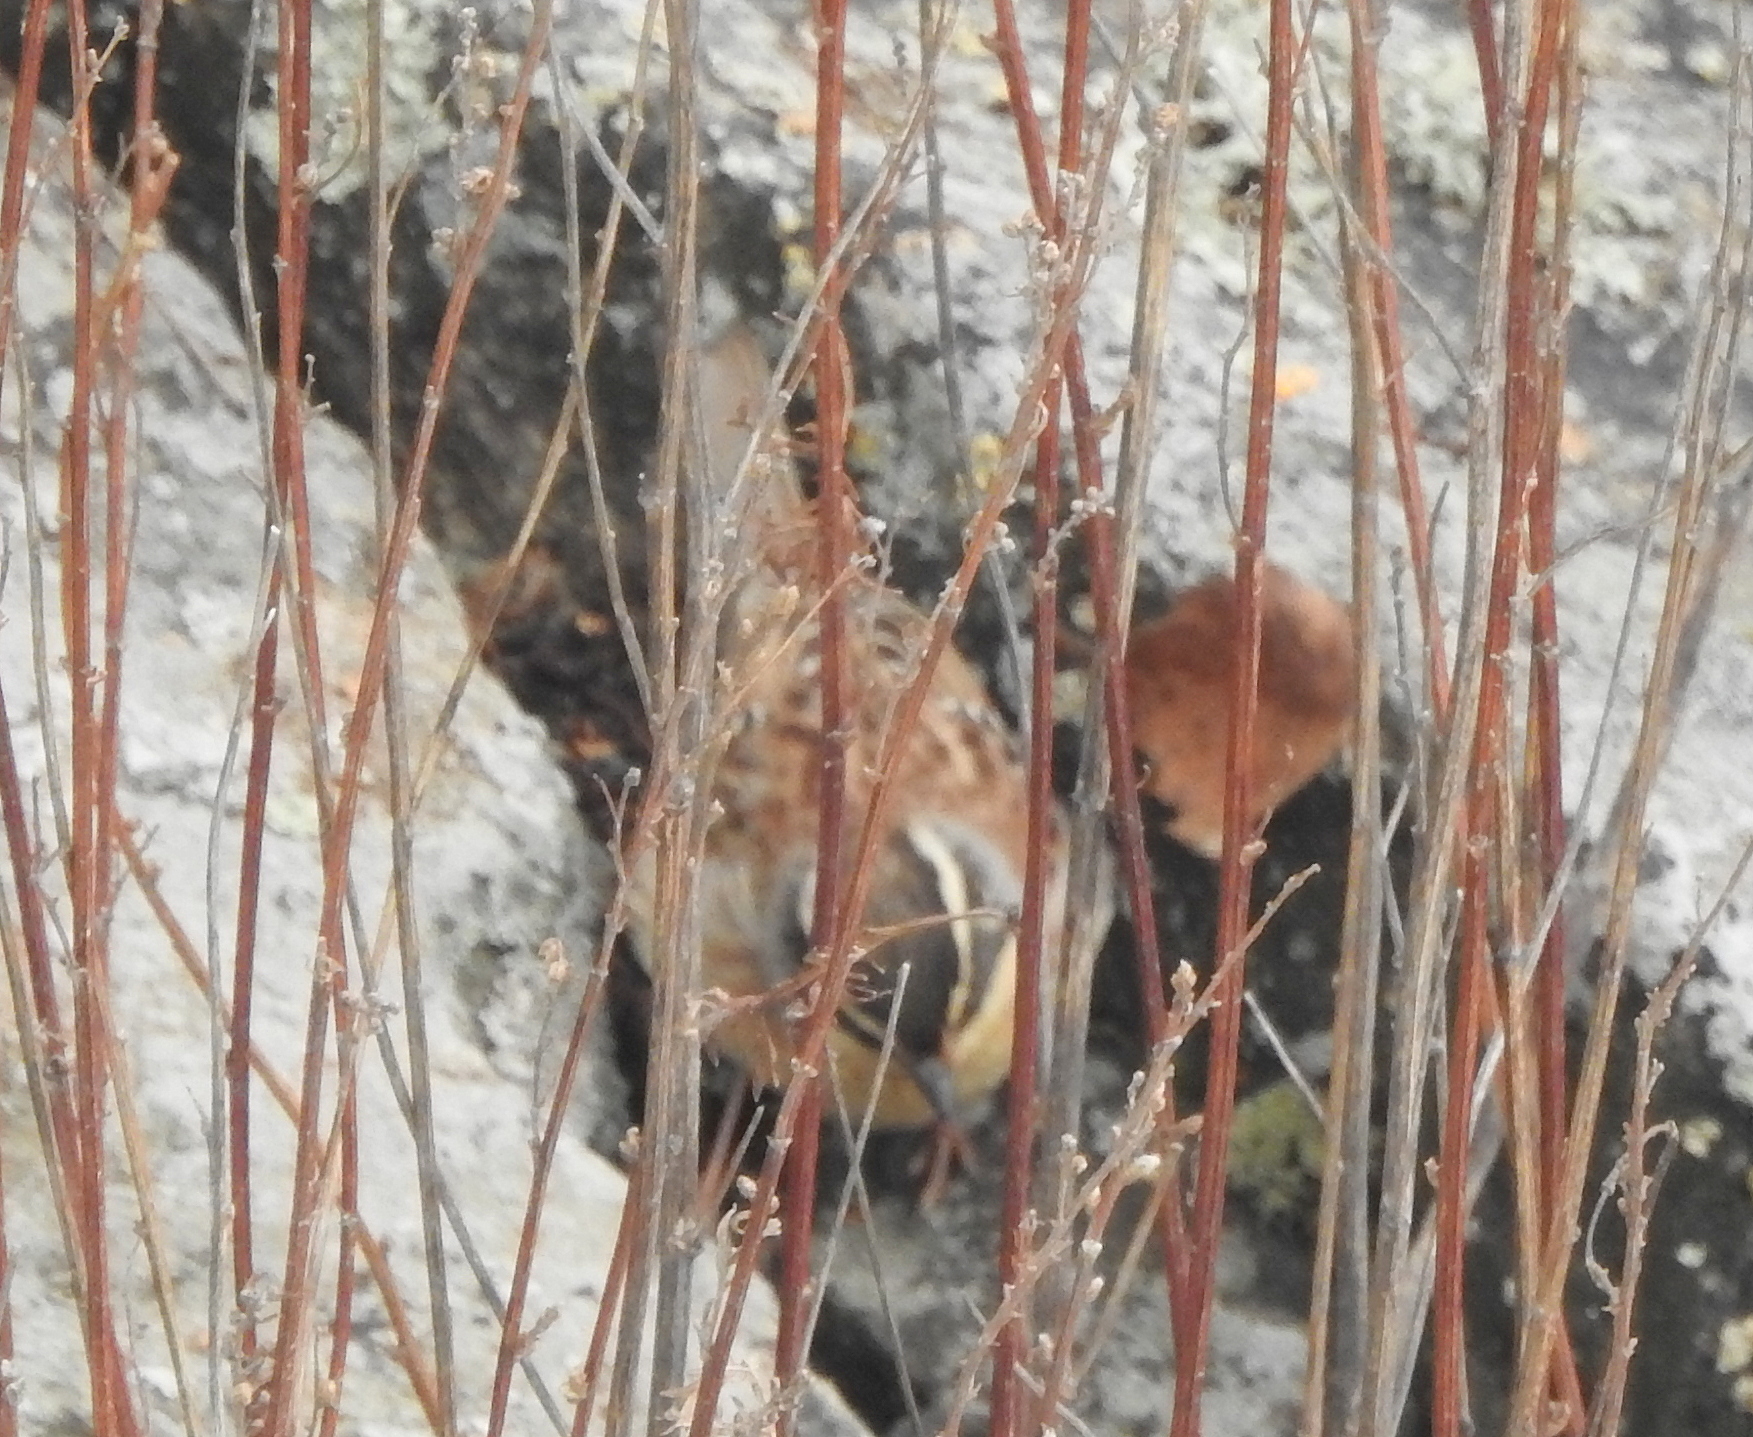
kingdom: Animalia
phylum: Chordata
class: Aves
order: Passeriformes
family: Prunellidae
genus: Prunella
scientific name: Prunella montanella
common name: Siberian accentor
